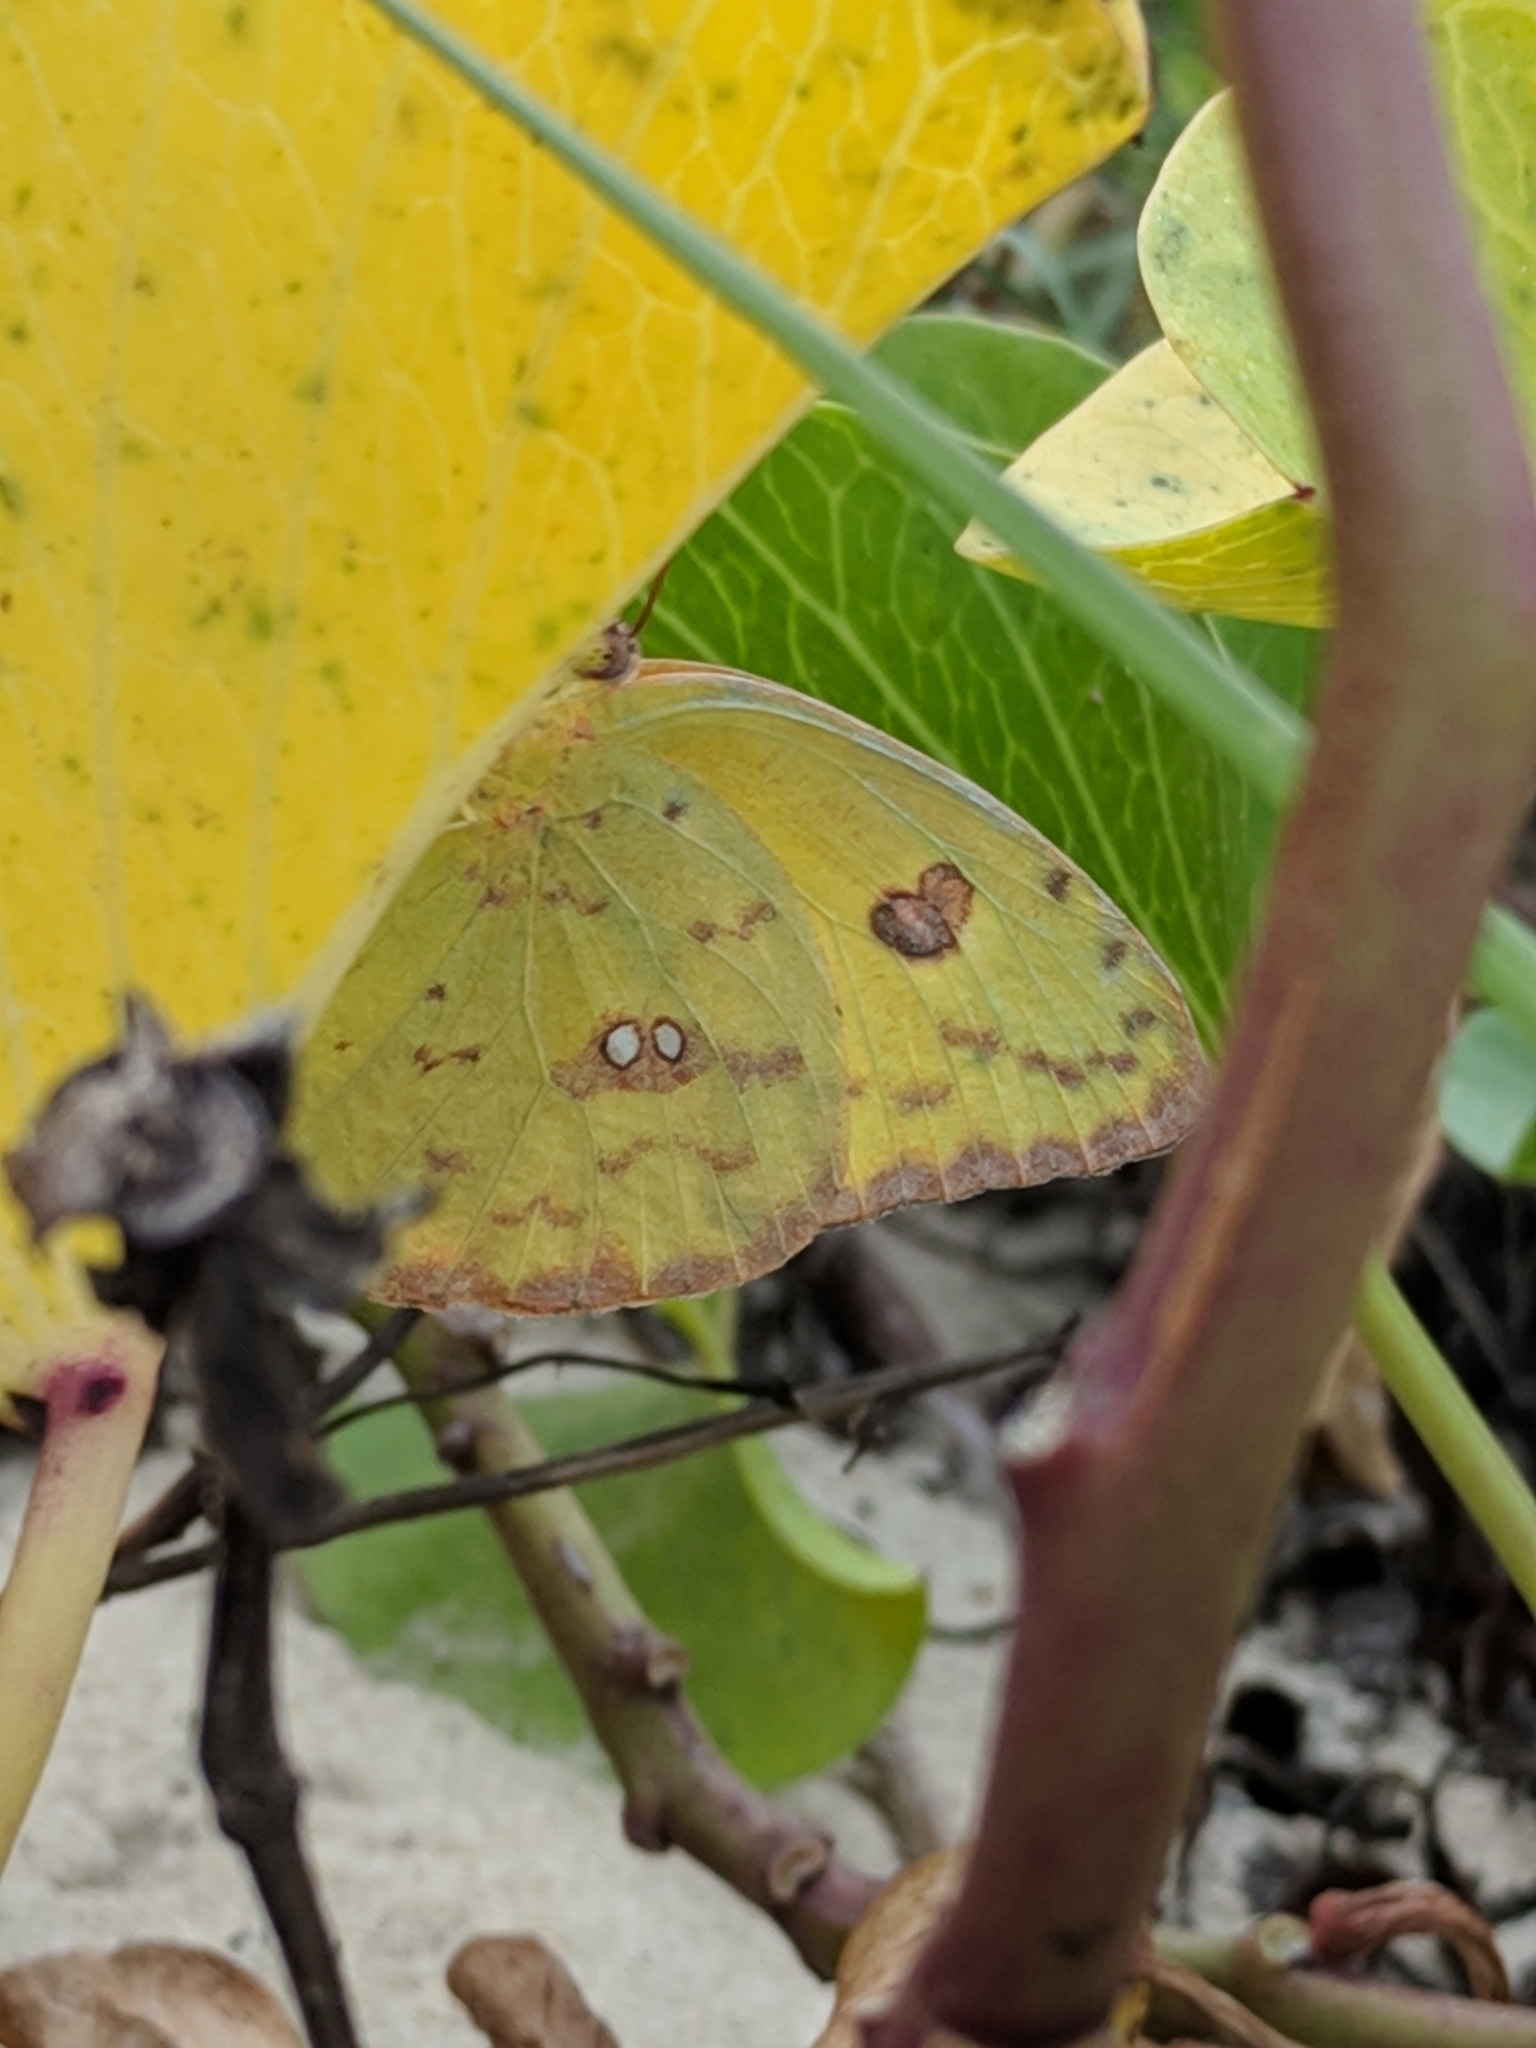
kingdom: Animalia
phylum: Arthropoda
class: Insecta
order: Lepidoptera
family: Pieridae
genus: Phoebis
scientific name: Phoebis sennae
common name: Cloudless sulphur
